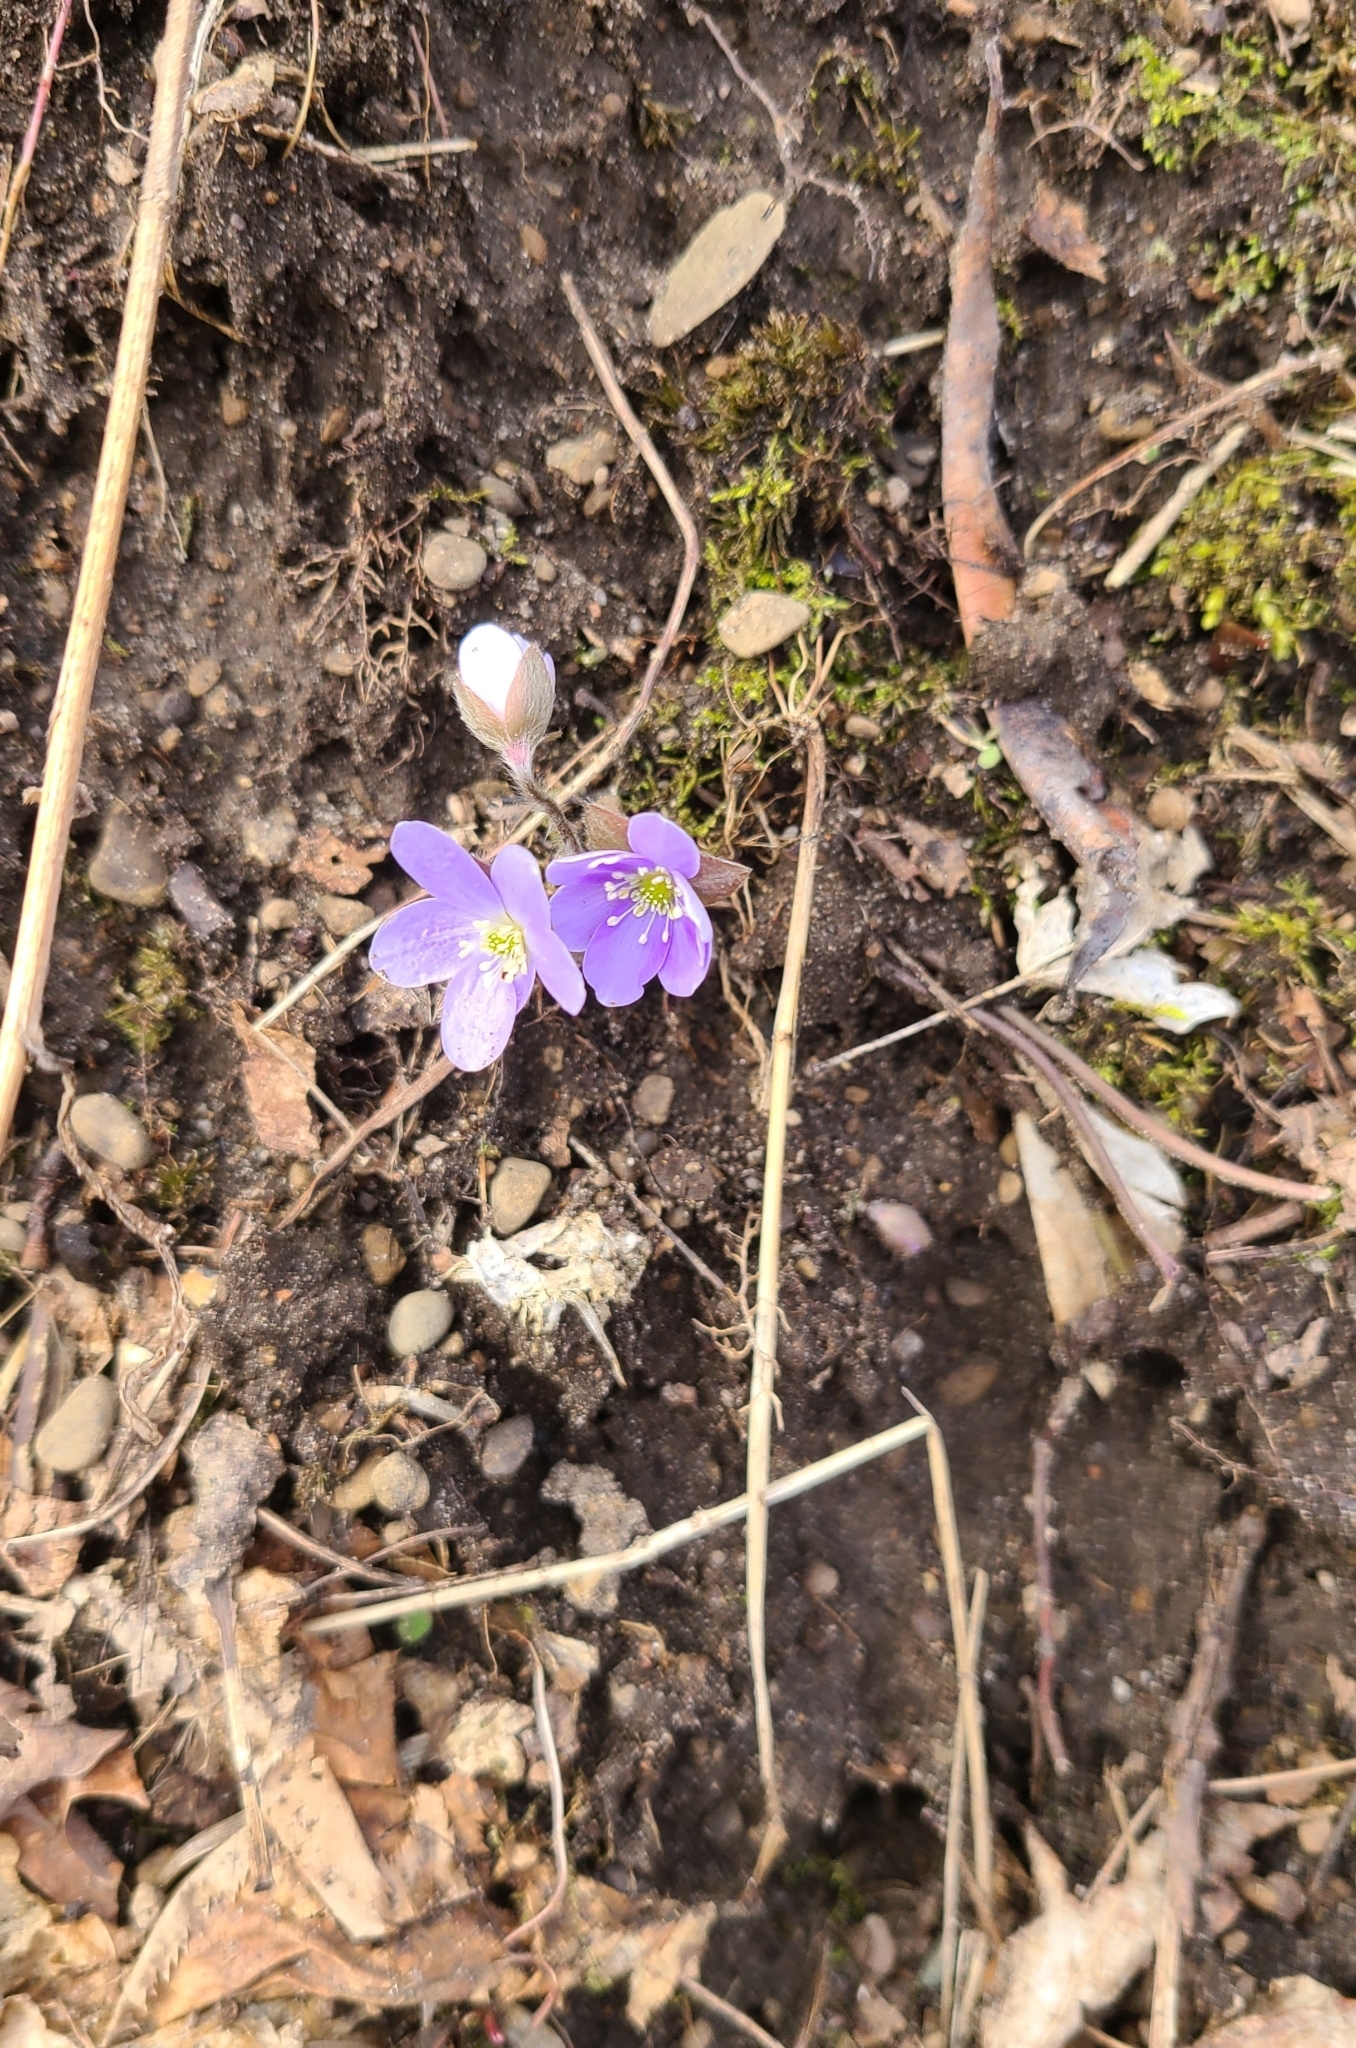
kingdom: Plantae
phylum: Tracheophyta
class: Magnoliopsida
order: Ranunculales
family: Ranunculaceae
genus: Hepatica
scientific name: Hepatica americana
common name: American hepatica
